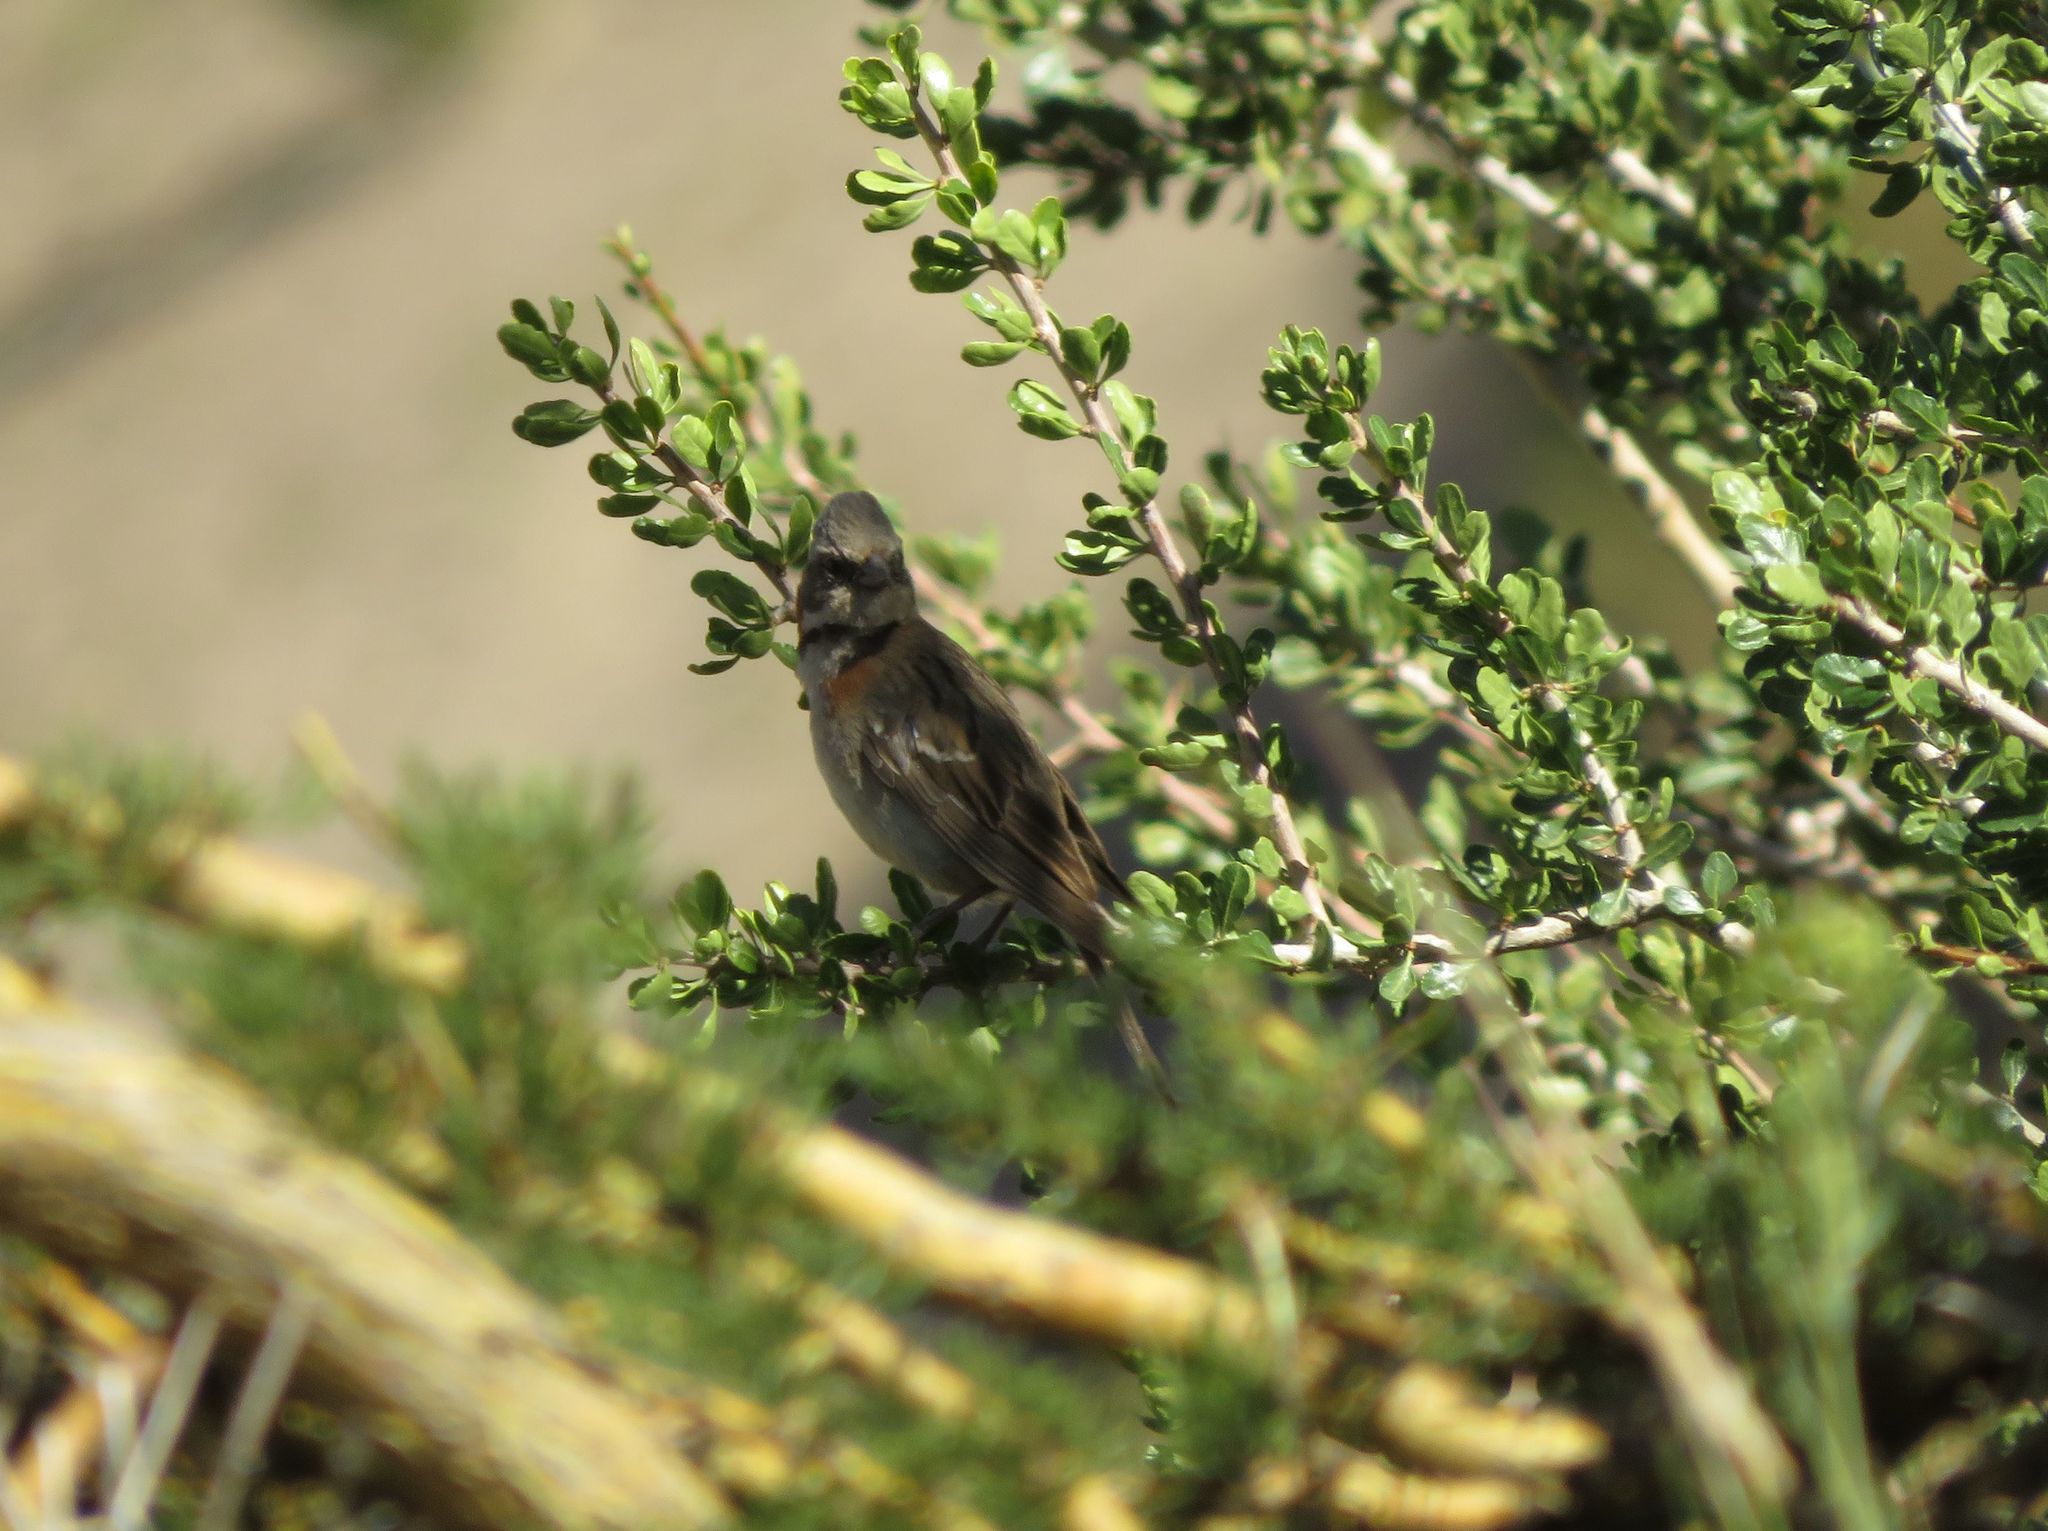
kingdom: Animalia
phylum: Chordata
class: Aves
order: Passeriformes
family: Passerellidae
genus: Zonotrichia
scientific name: Zonotrichia capensis
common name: Rufous-collared sparrow
